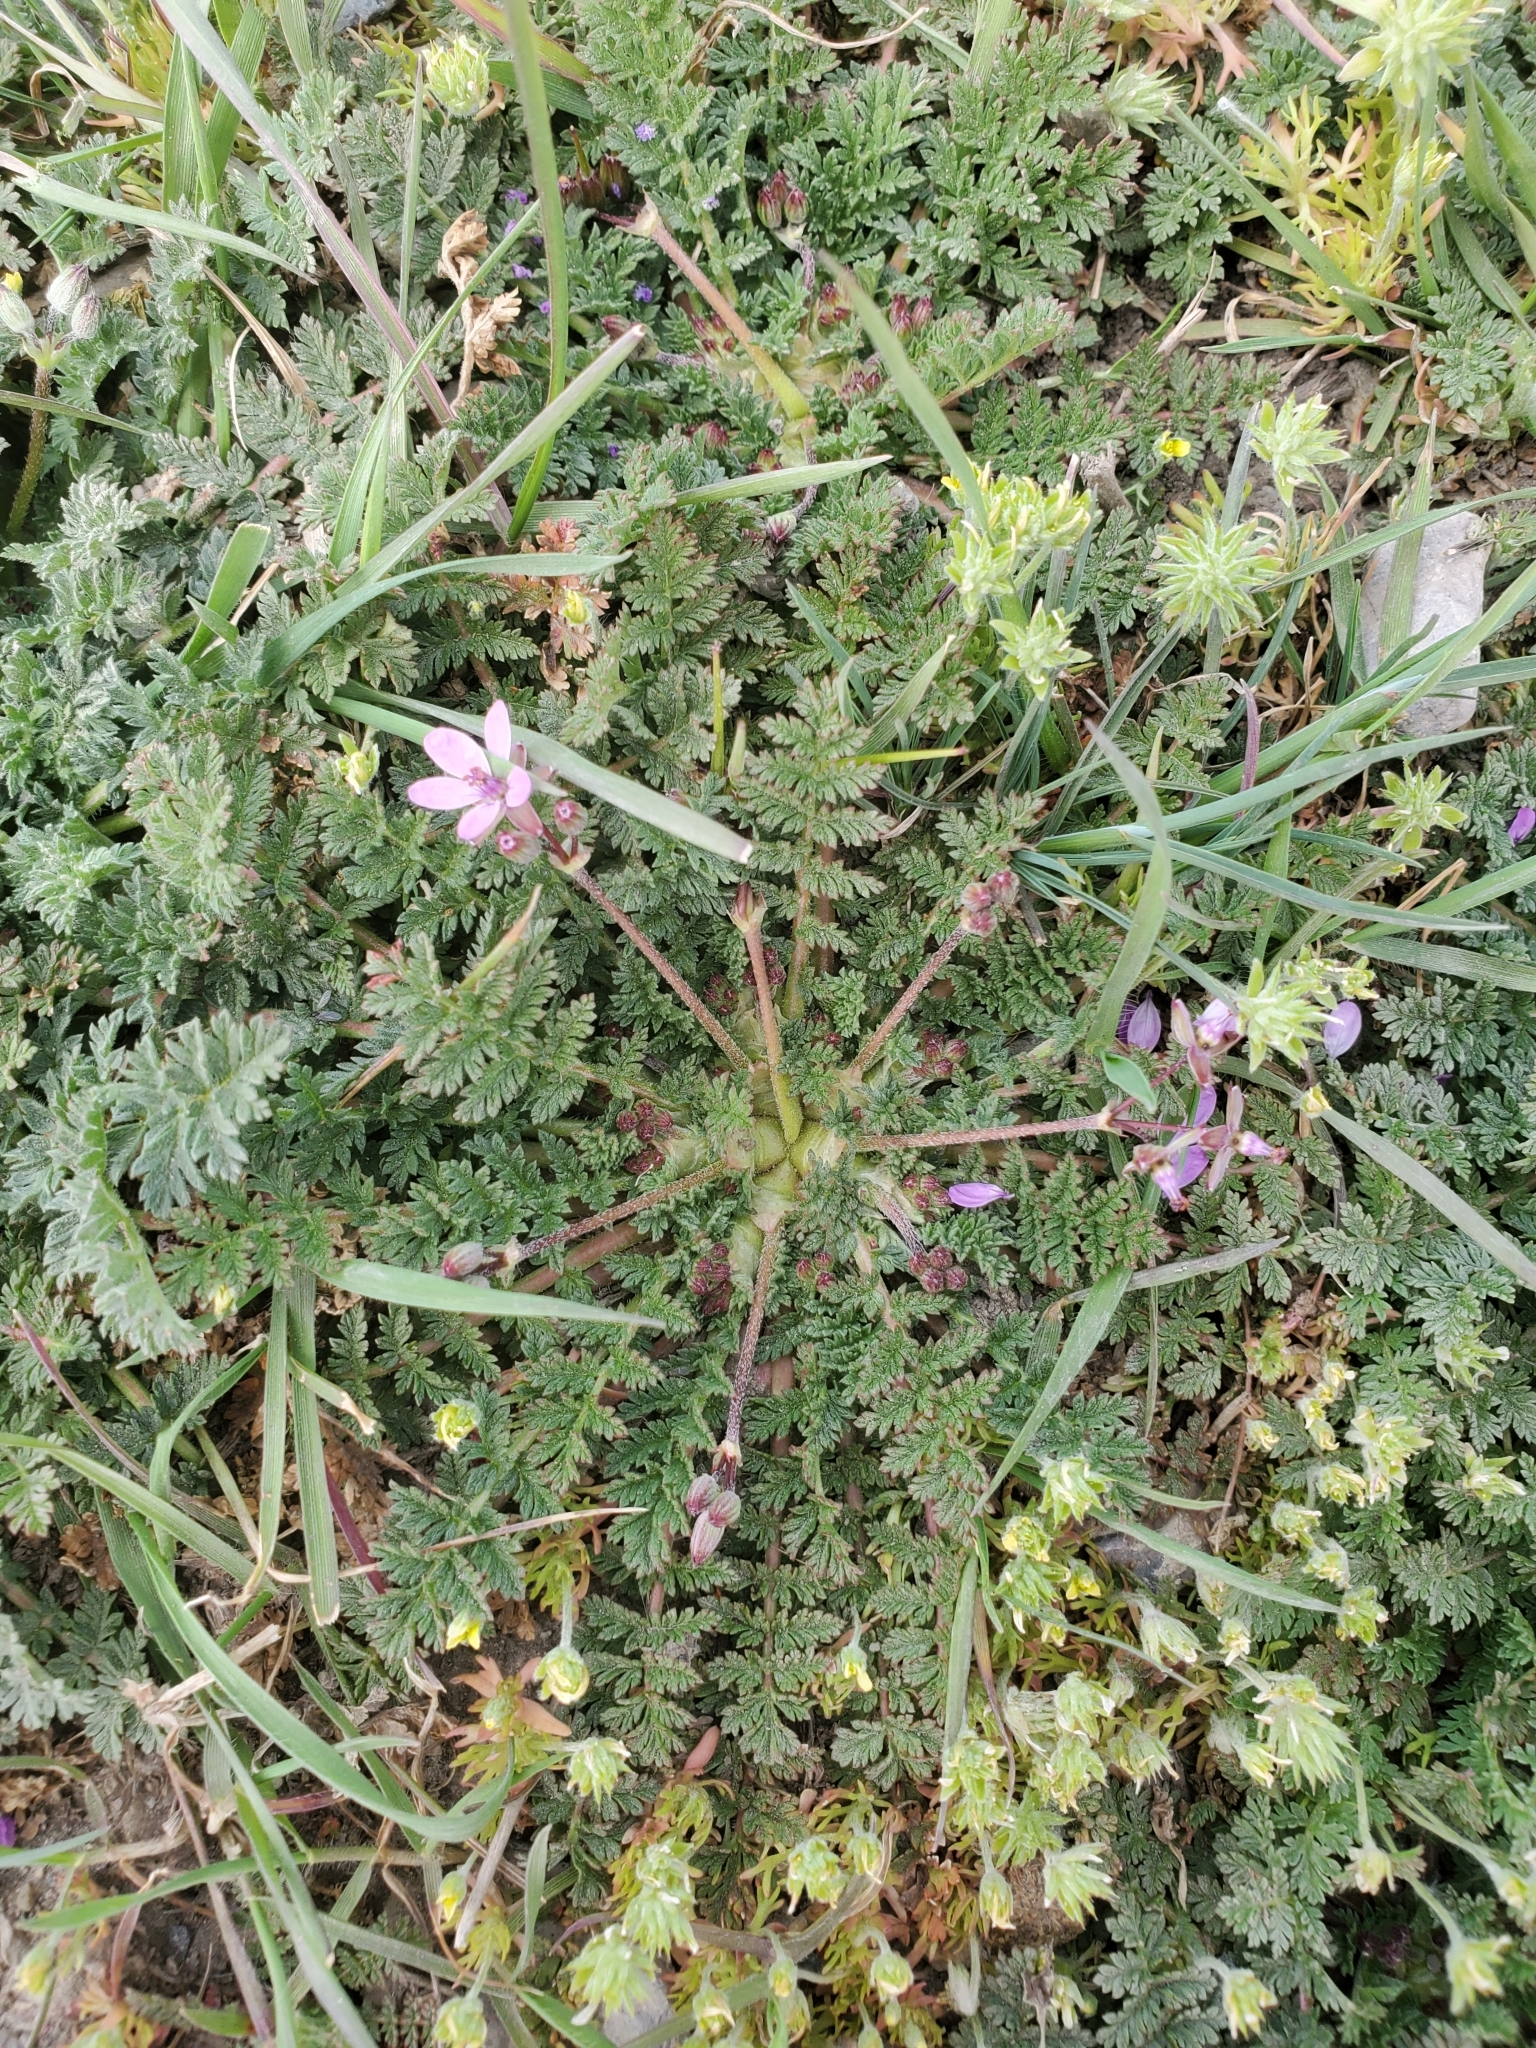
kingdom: Plantae
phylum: Tracheophyta
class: Magnoliopsida
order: Geraniales
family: Geraniaceae
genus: Erodium
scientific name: Erodium cicutarium
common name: Common stork's-bill
